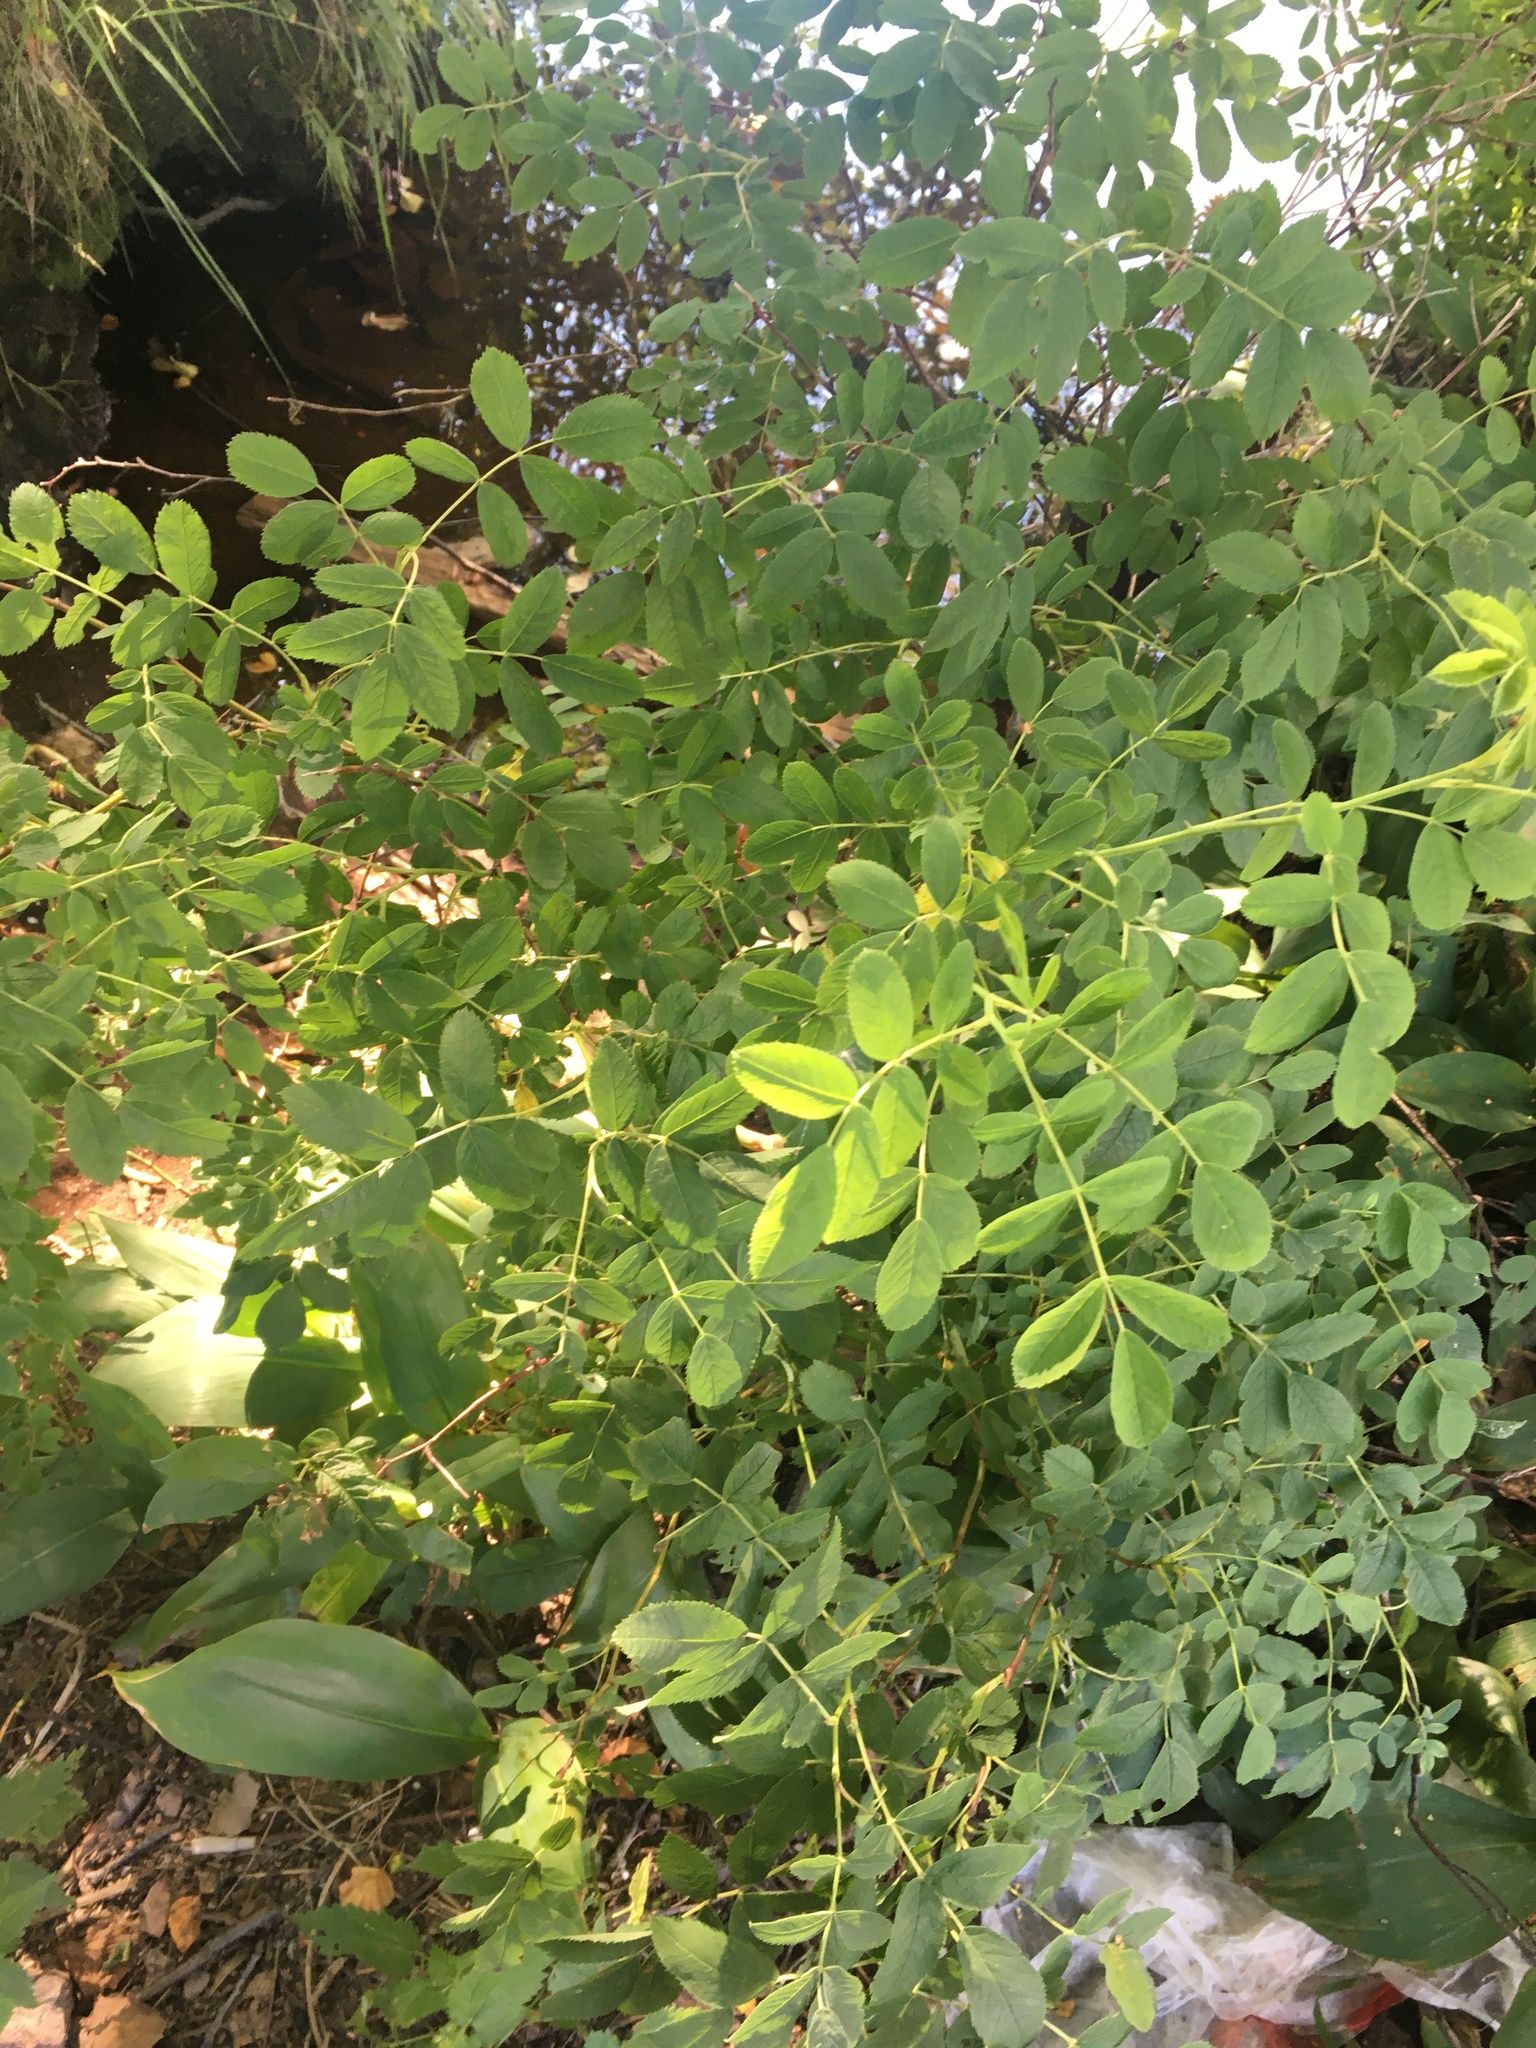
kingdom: Plantae
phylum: Tracheophyta
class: Magnoliopsida
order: Fabales
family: Fabaceae
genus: Caragana
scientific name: Caragana arborescens
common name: Siberian peashrub
